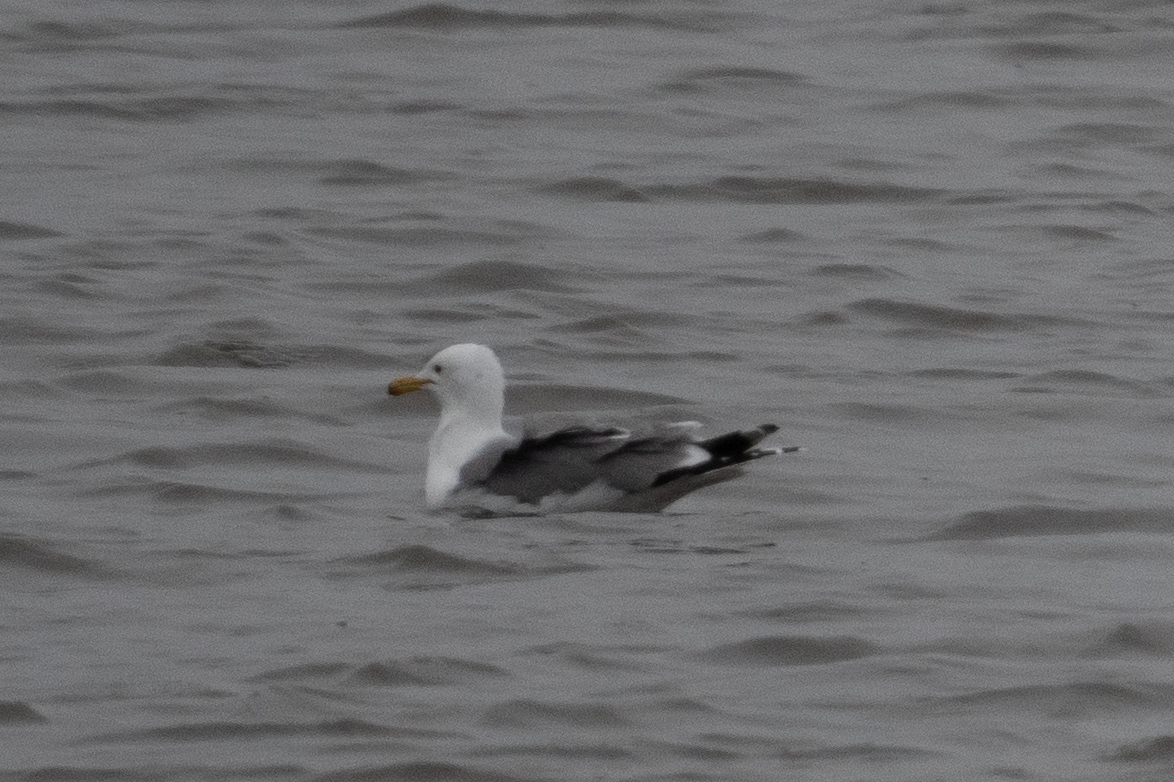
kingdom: Animalia
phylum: Chordata
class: Aves
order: Charadriiformes
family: Laridae
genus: Larus
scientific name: Larus californicus
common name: California gull
